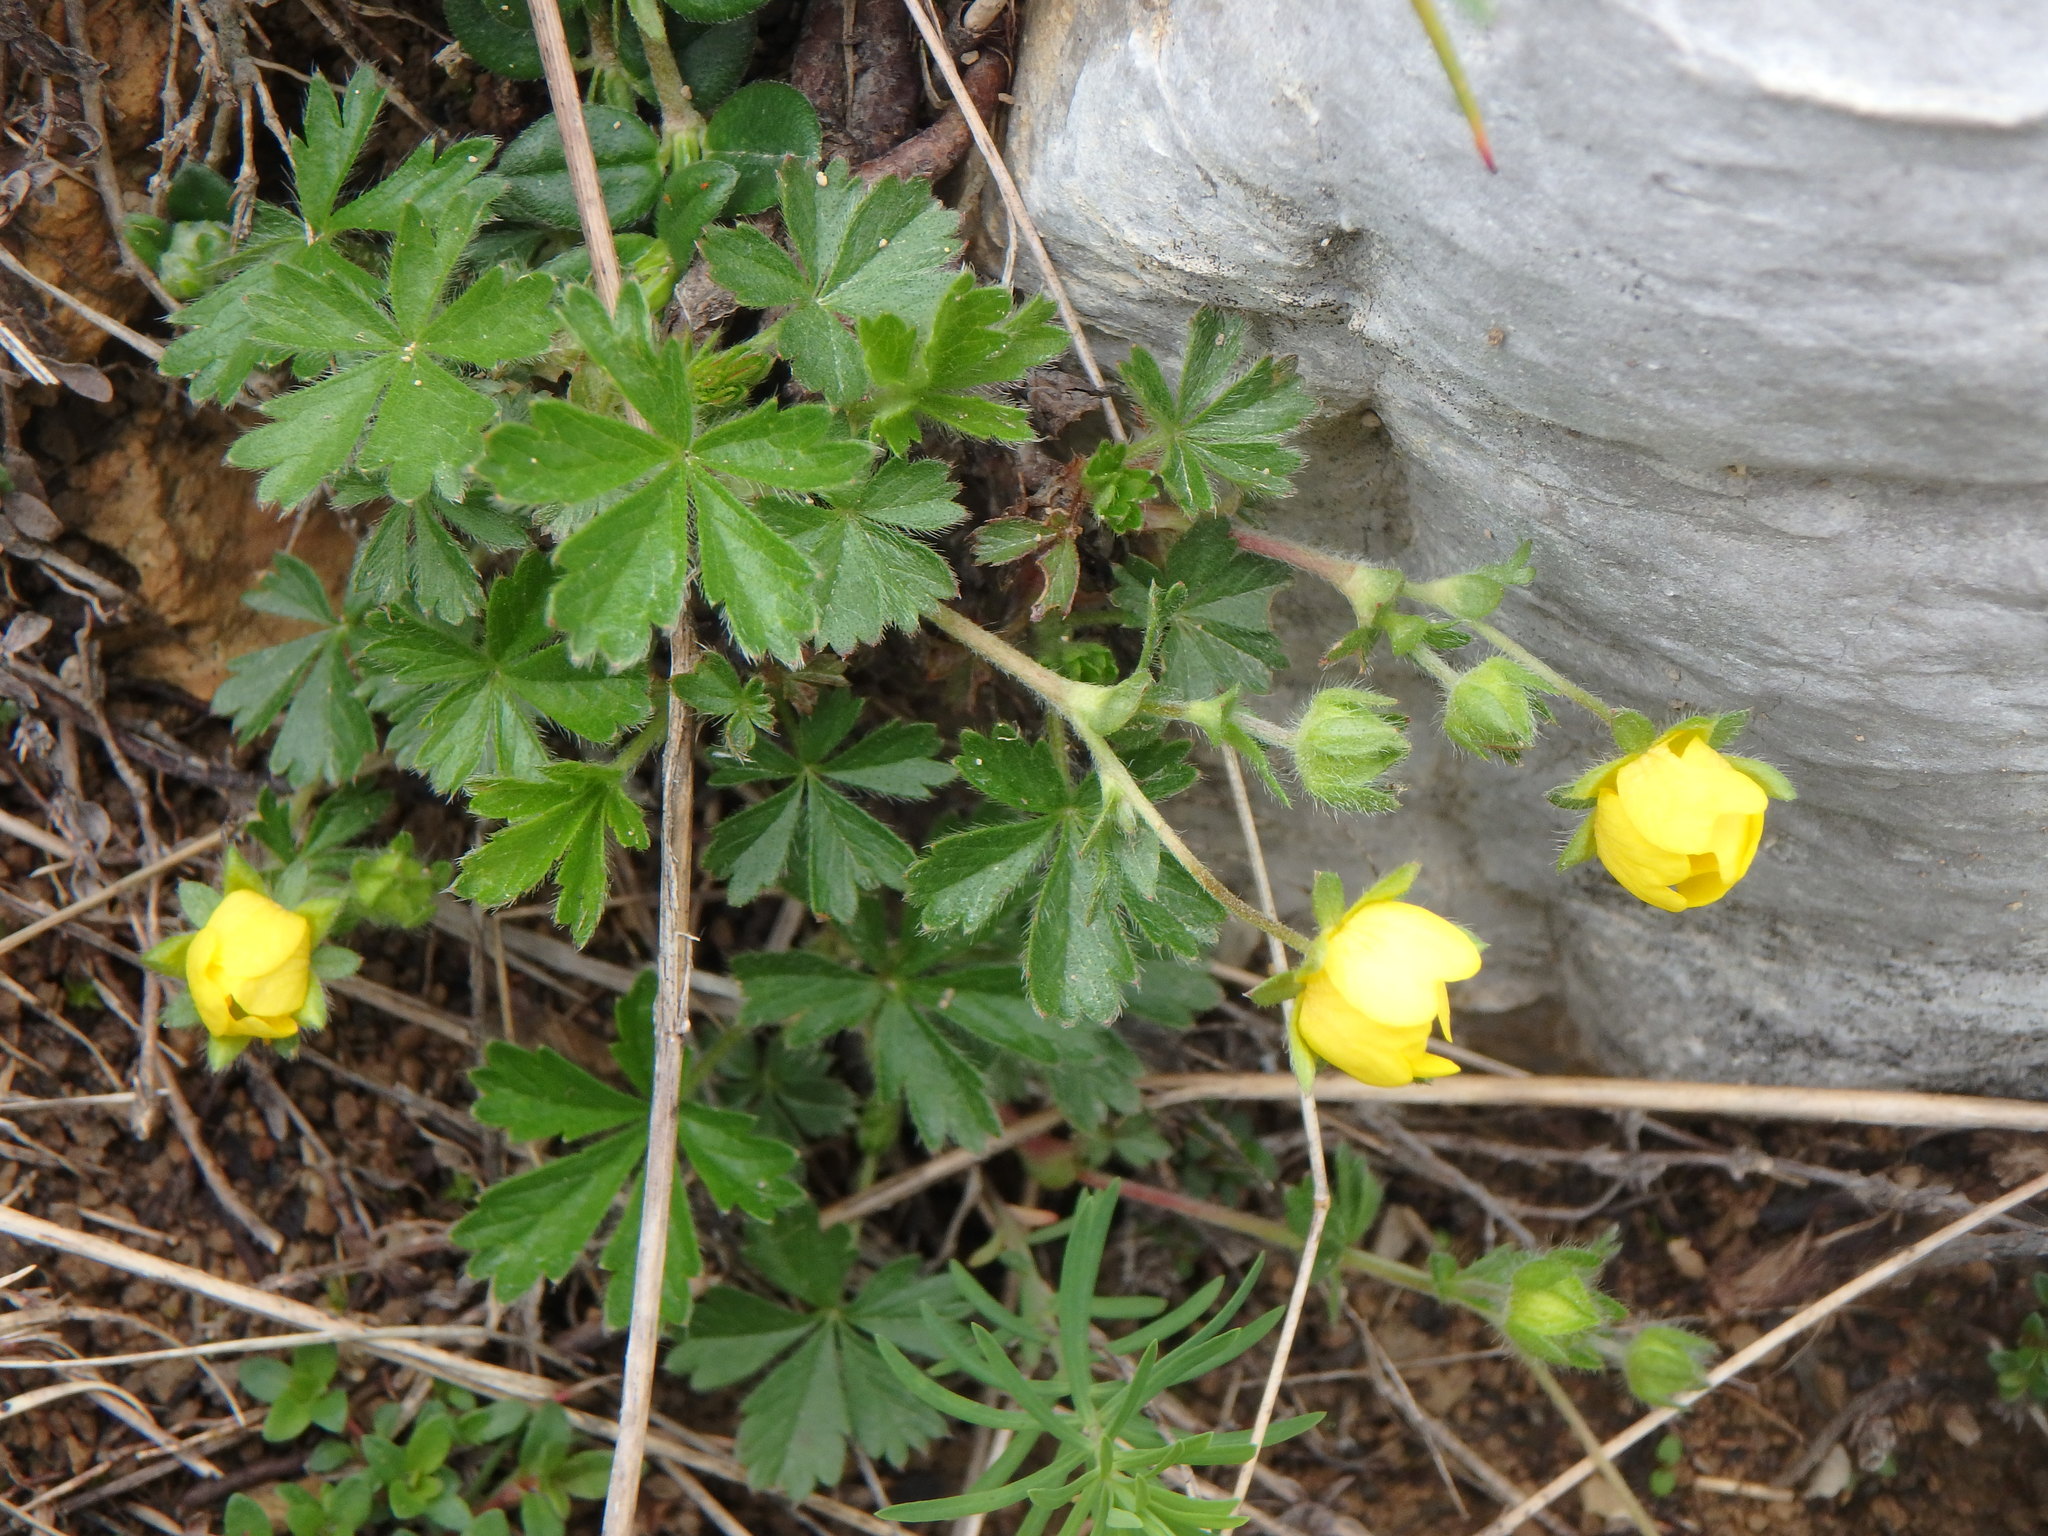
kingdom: Plantae
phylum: Tracheophyta
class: Magnoliopsida
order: Rosales
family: Rosaceae
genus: Potentilla
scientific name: Potentilla crantzii
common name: Alpine cinquefoil
